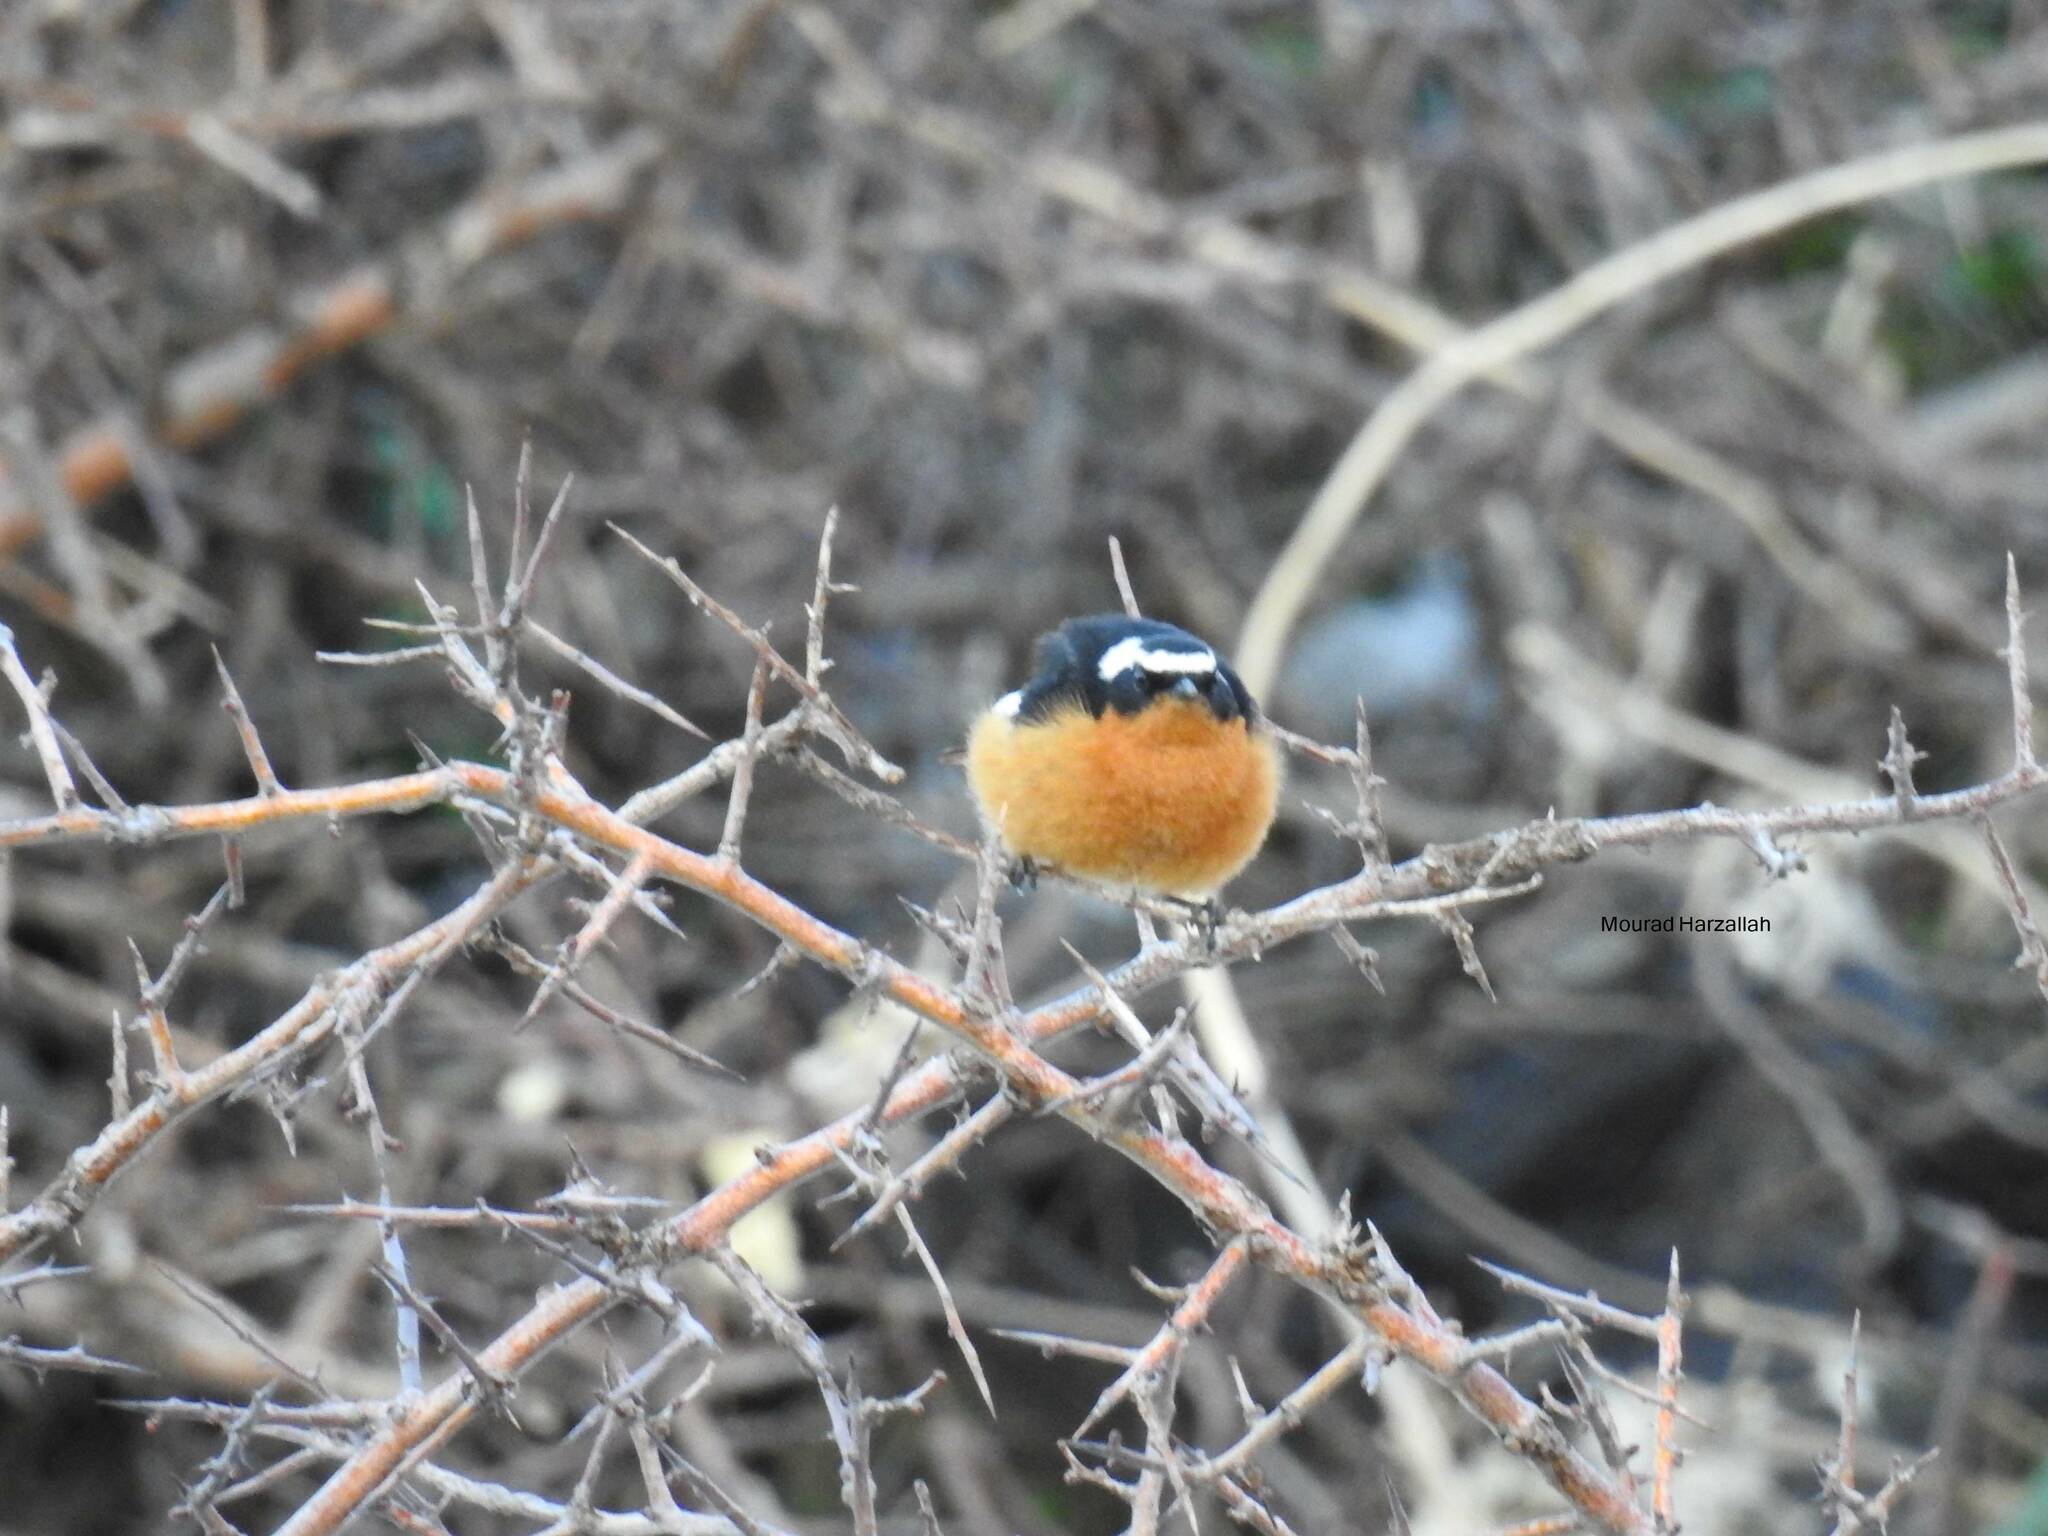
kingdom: Animalia
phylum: Chordata
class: Aves
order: Passeriformes
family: Muscicapidae
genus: Phoenicurus
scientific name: Phoenicurus moussieri
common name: Moussier's redstart
